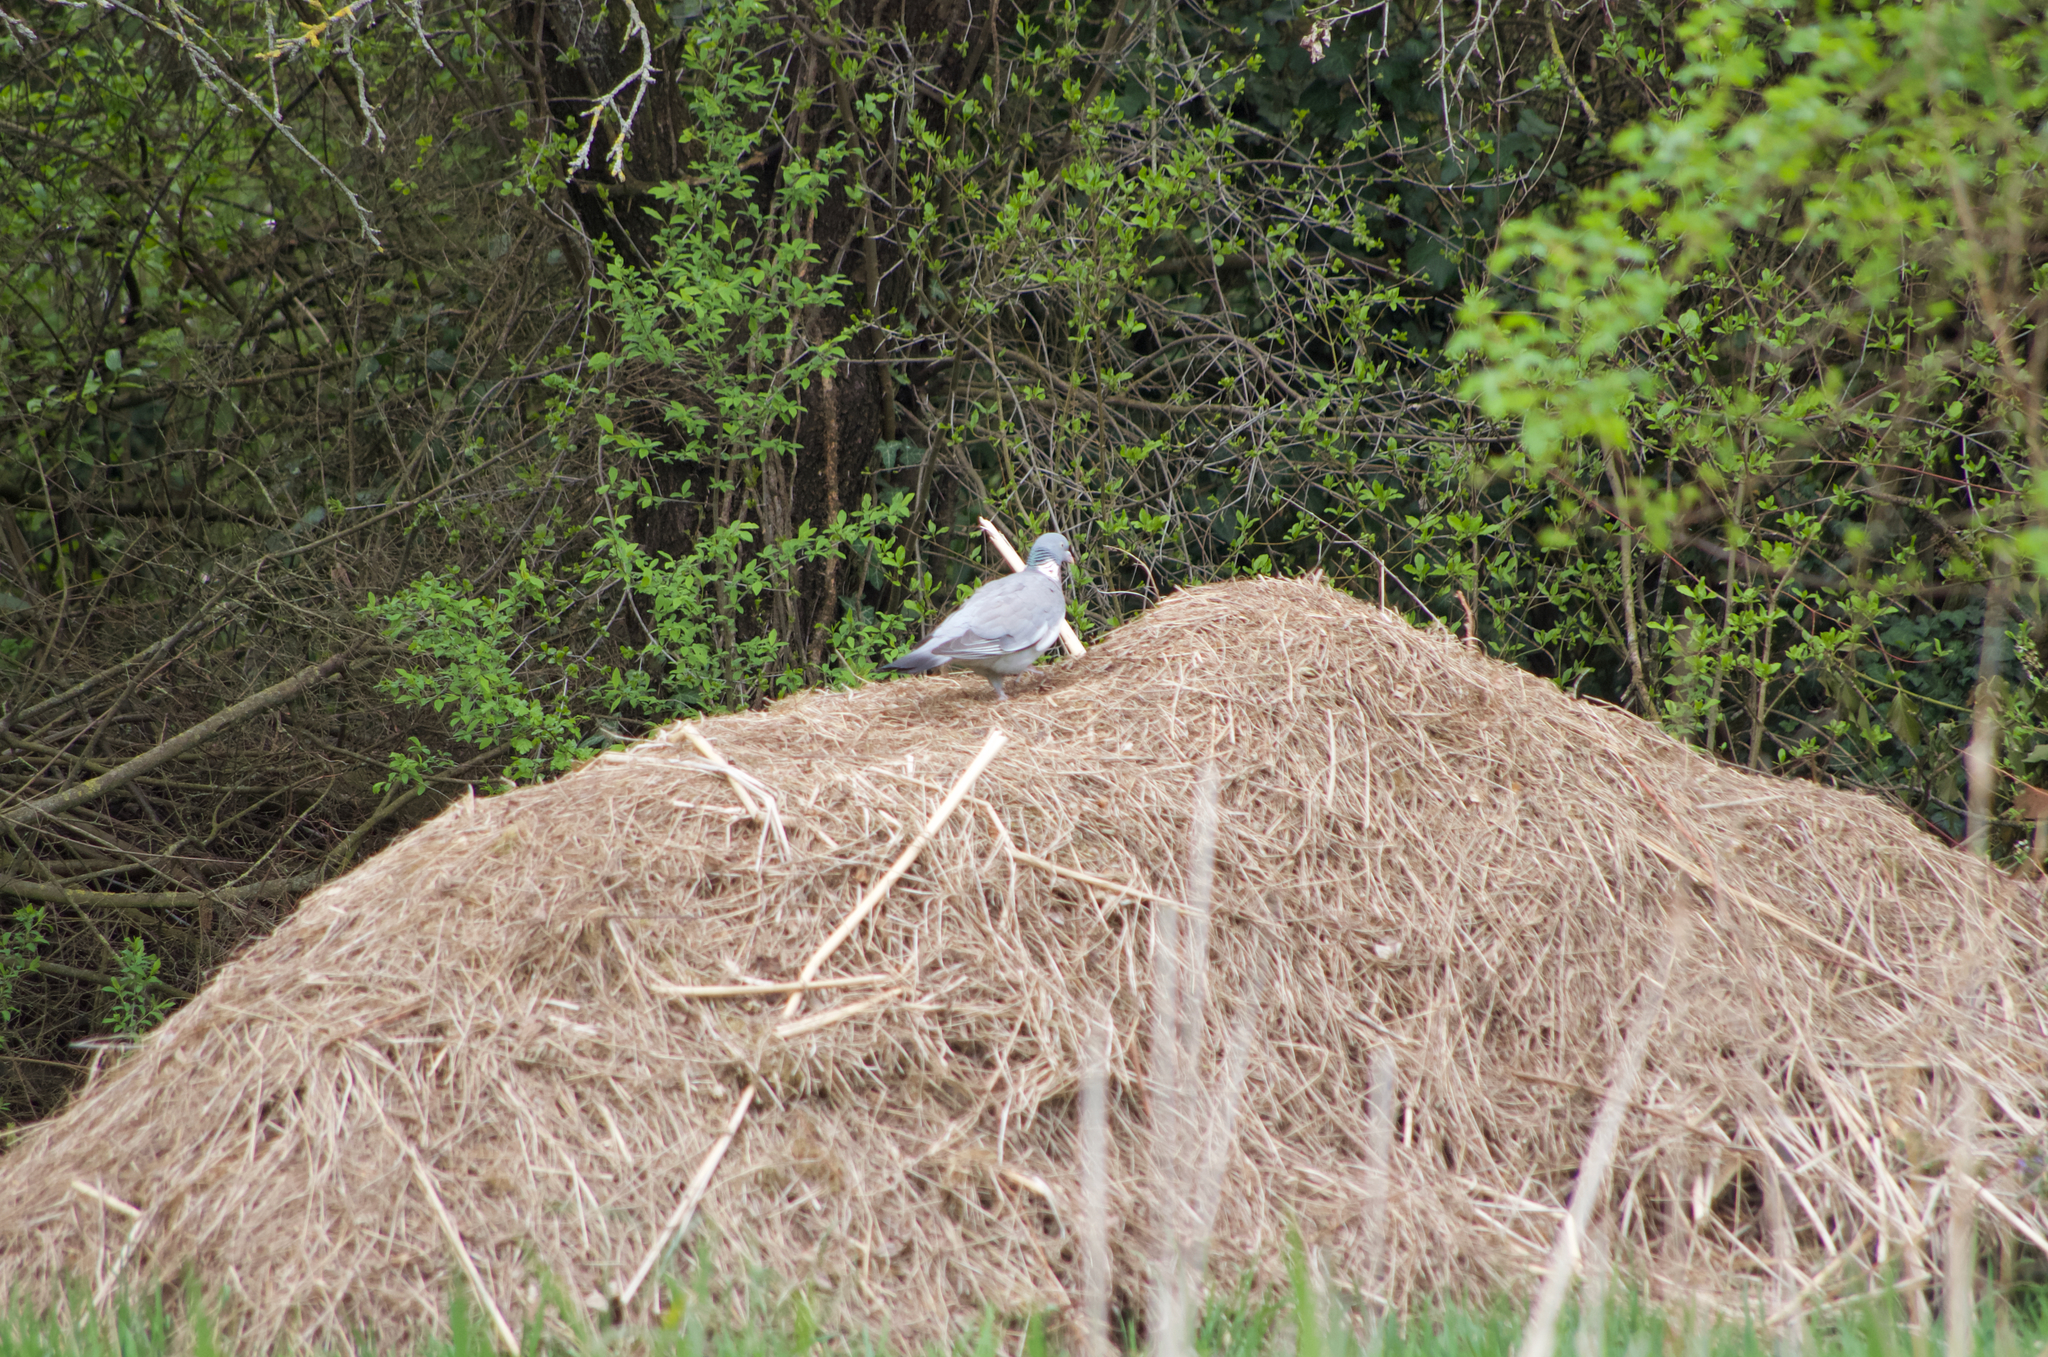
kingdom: Animalia
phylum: Chordata
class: Aves
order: Columbiformes
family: Columbidae
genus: Columba
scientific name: Columba palumbus
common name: Common wood pigeon
